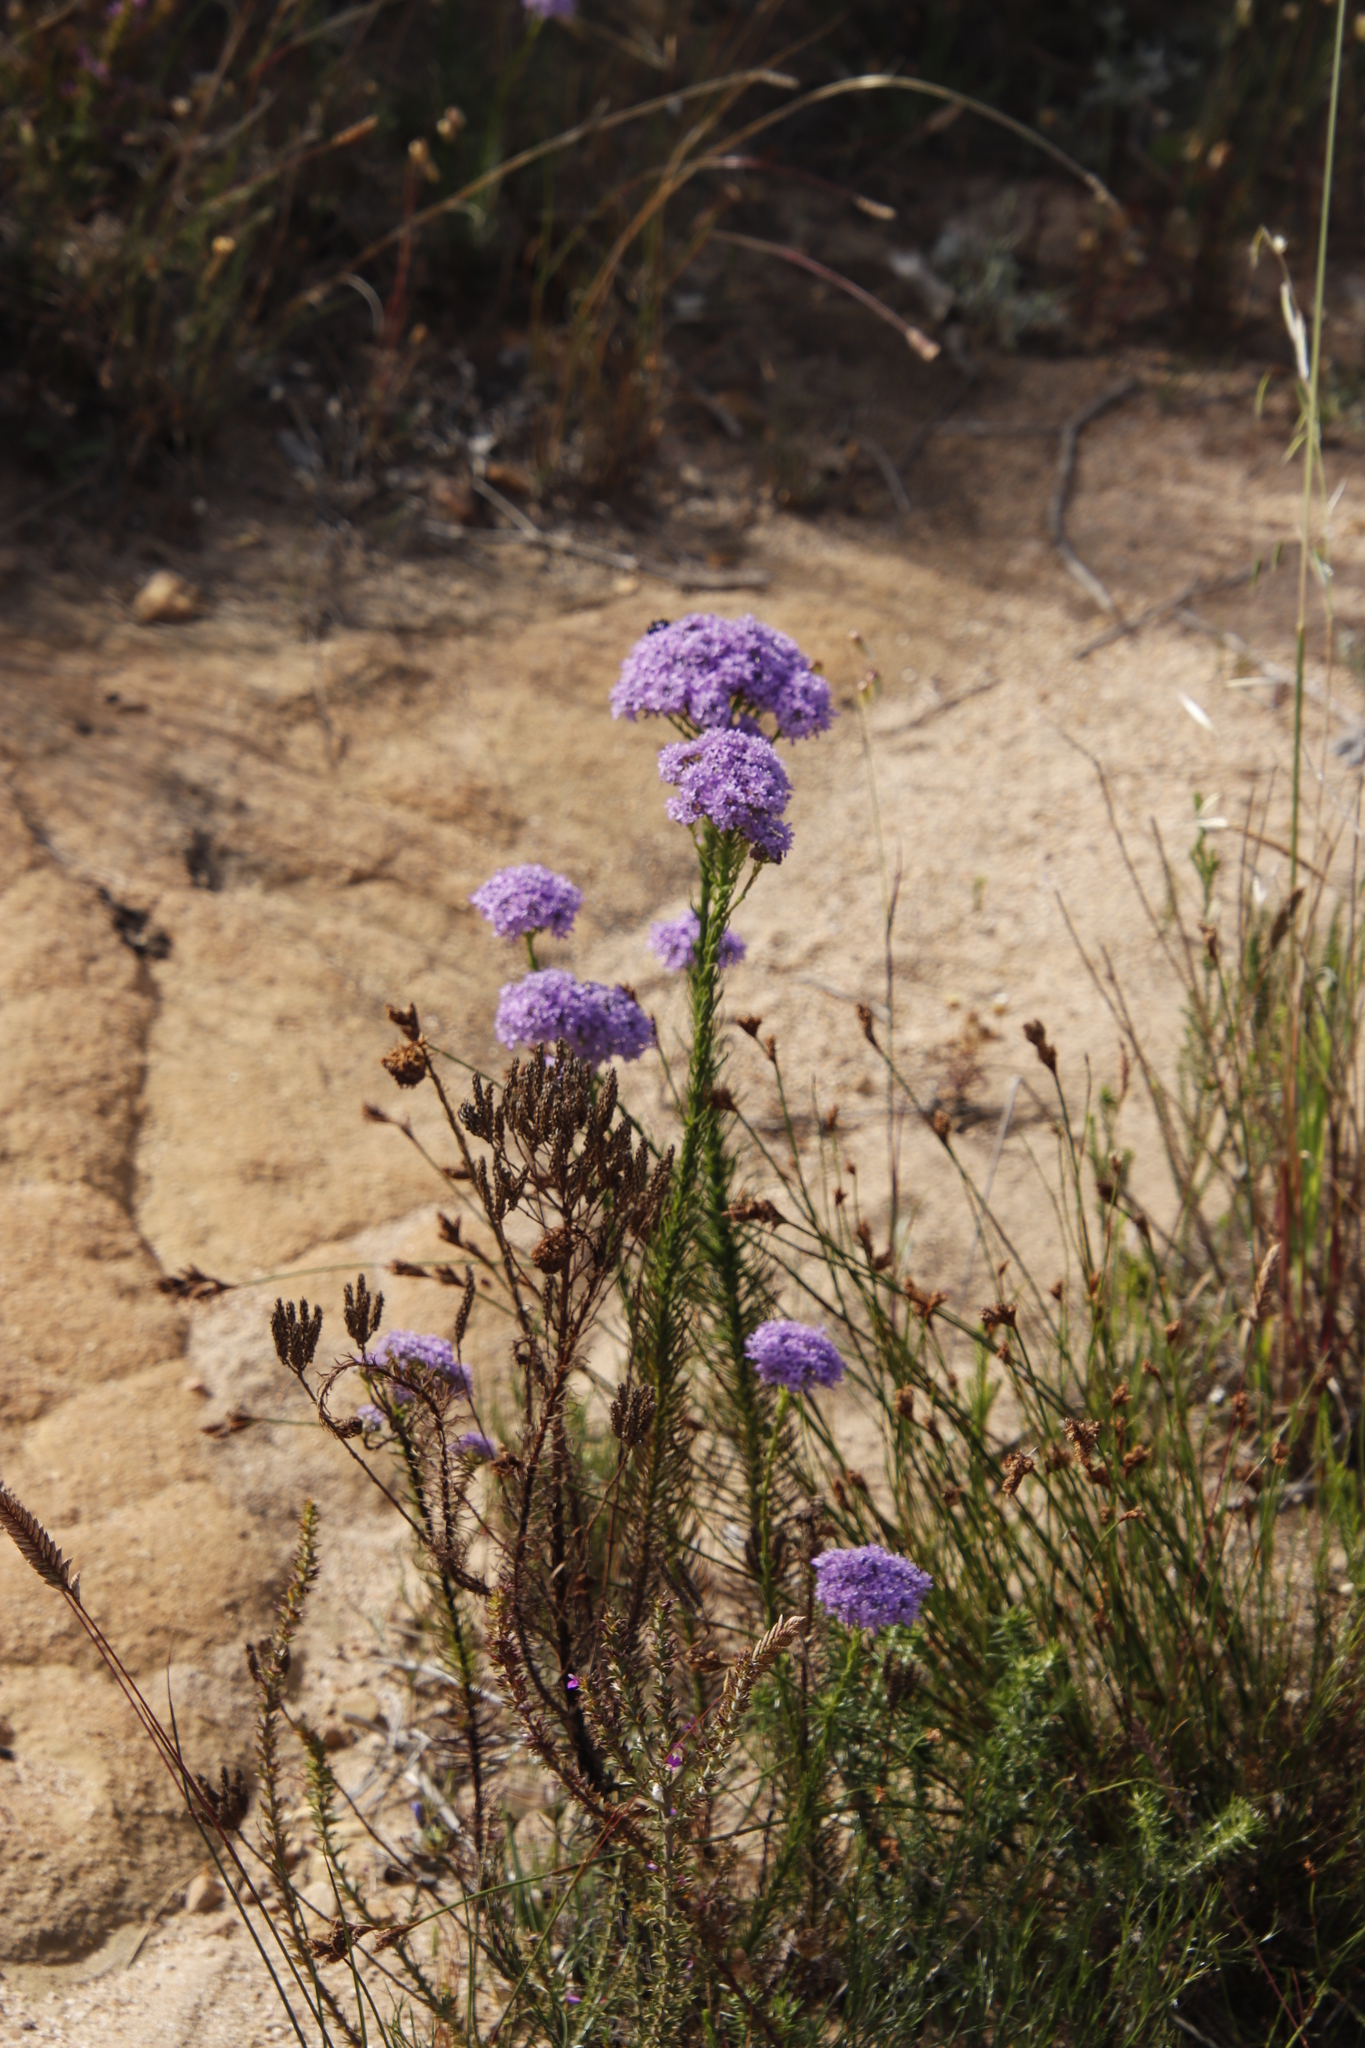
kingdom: Plantae
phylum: Tracheophyta
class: Magnoliopsida
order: Lamiales
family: Scrophulariaceae
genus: Pseudoselago
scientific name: Pseudoselago spuria
